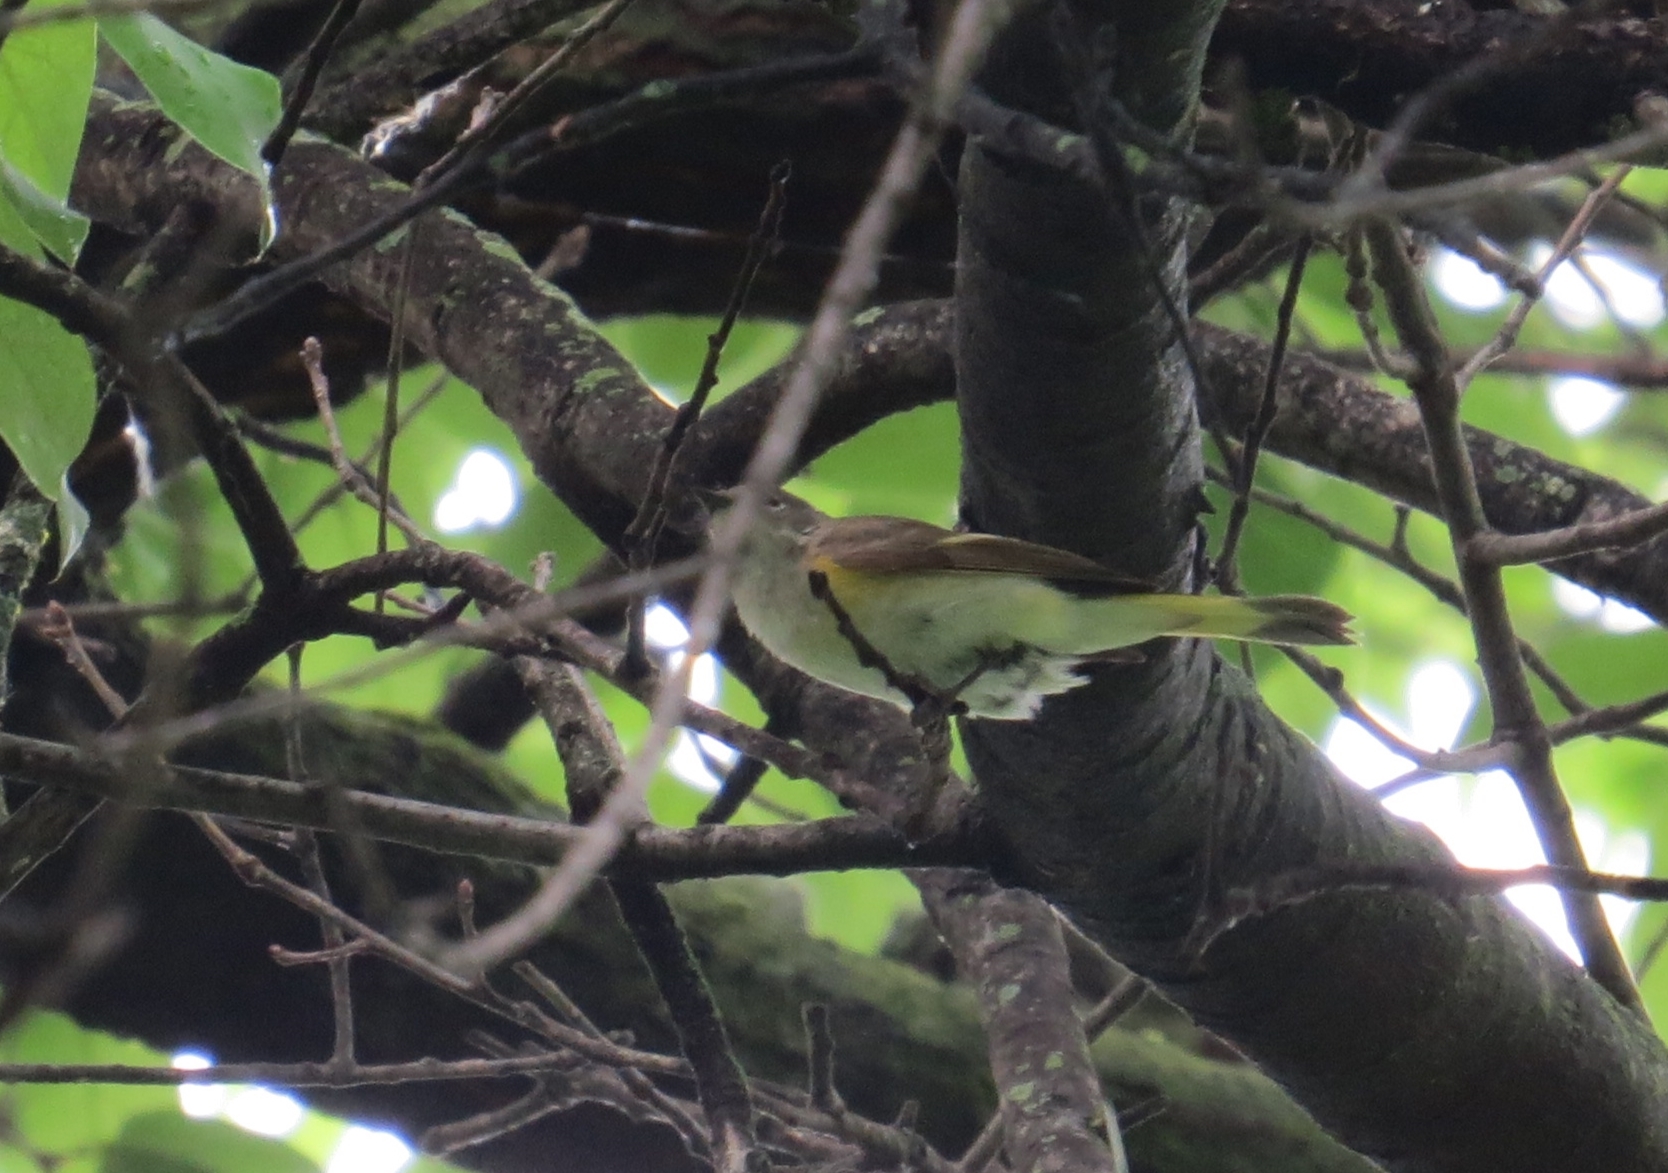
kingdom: Animalia
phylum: Chordata
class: Aves
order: Passeriformes
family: Parulidae
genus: Setophaga
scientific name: Setophaga ruticilla
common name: American redstart
